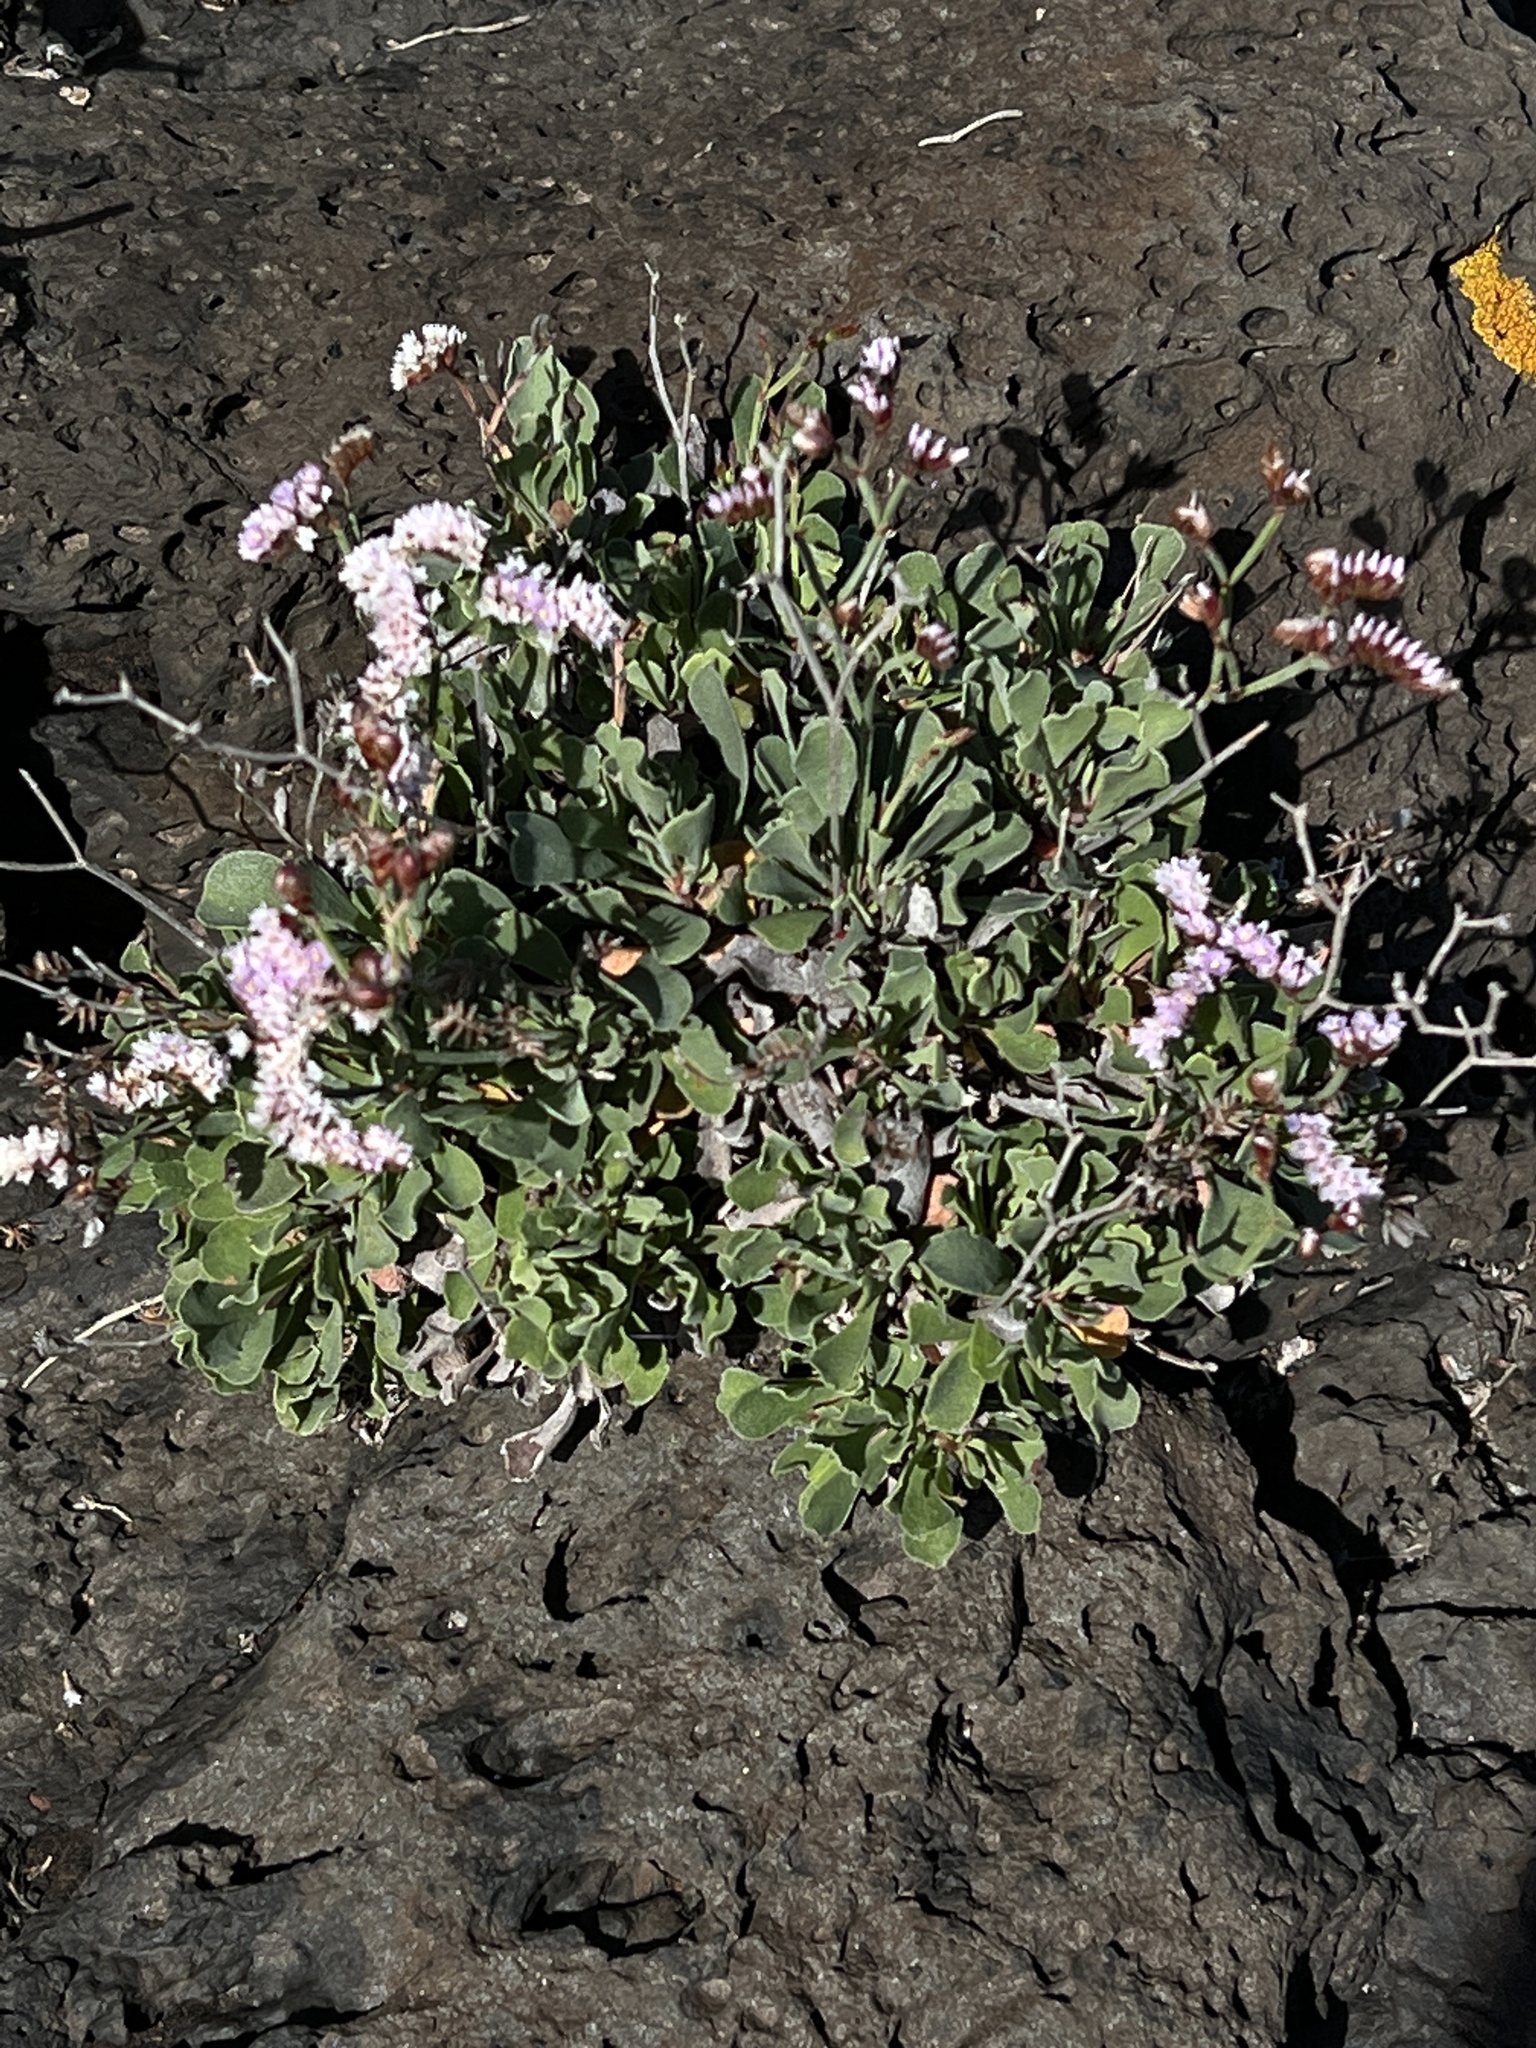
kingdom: Plantae
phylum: Tracheophyta
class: Magnoliopsida
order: Caryophyllales
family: Plumbaginaceae
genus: Limonium
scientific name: Limonium pectinatum
